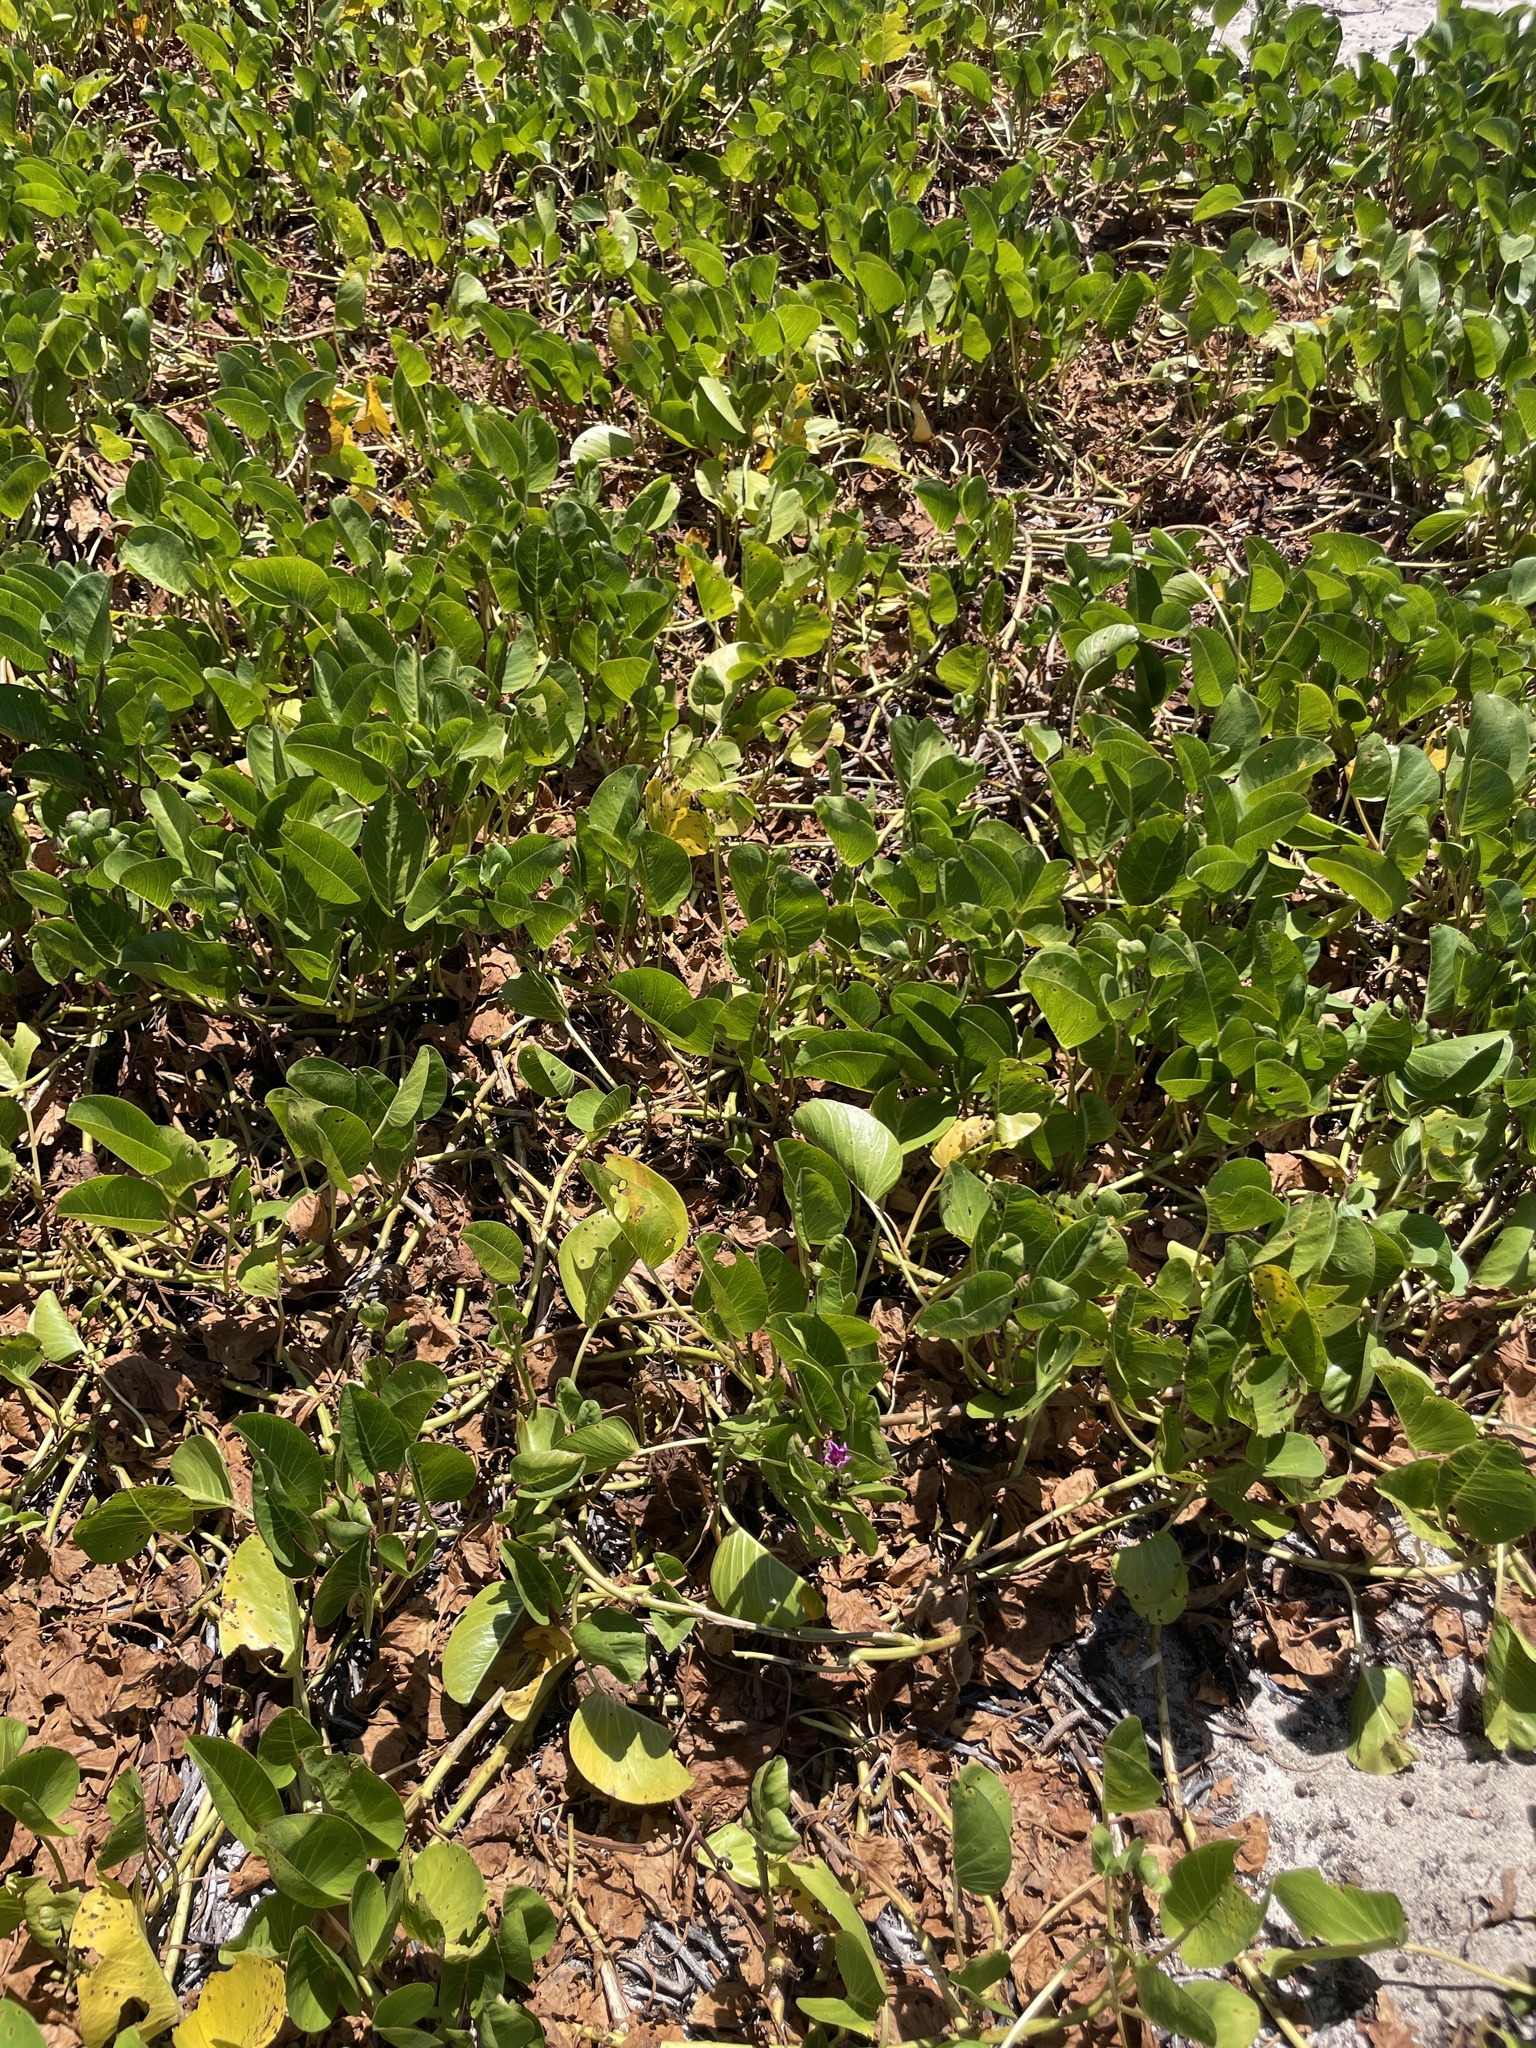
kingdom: Plantae
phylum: Tracheophyta
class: Magnoliopsida
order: Solanales
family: Convolvulaceae
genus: Ipomoea
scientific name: Ipomoea pes-caprae
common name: Beach morning glory
